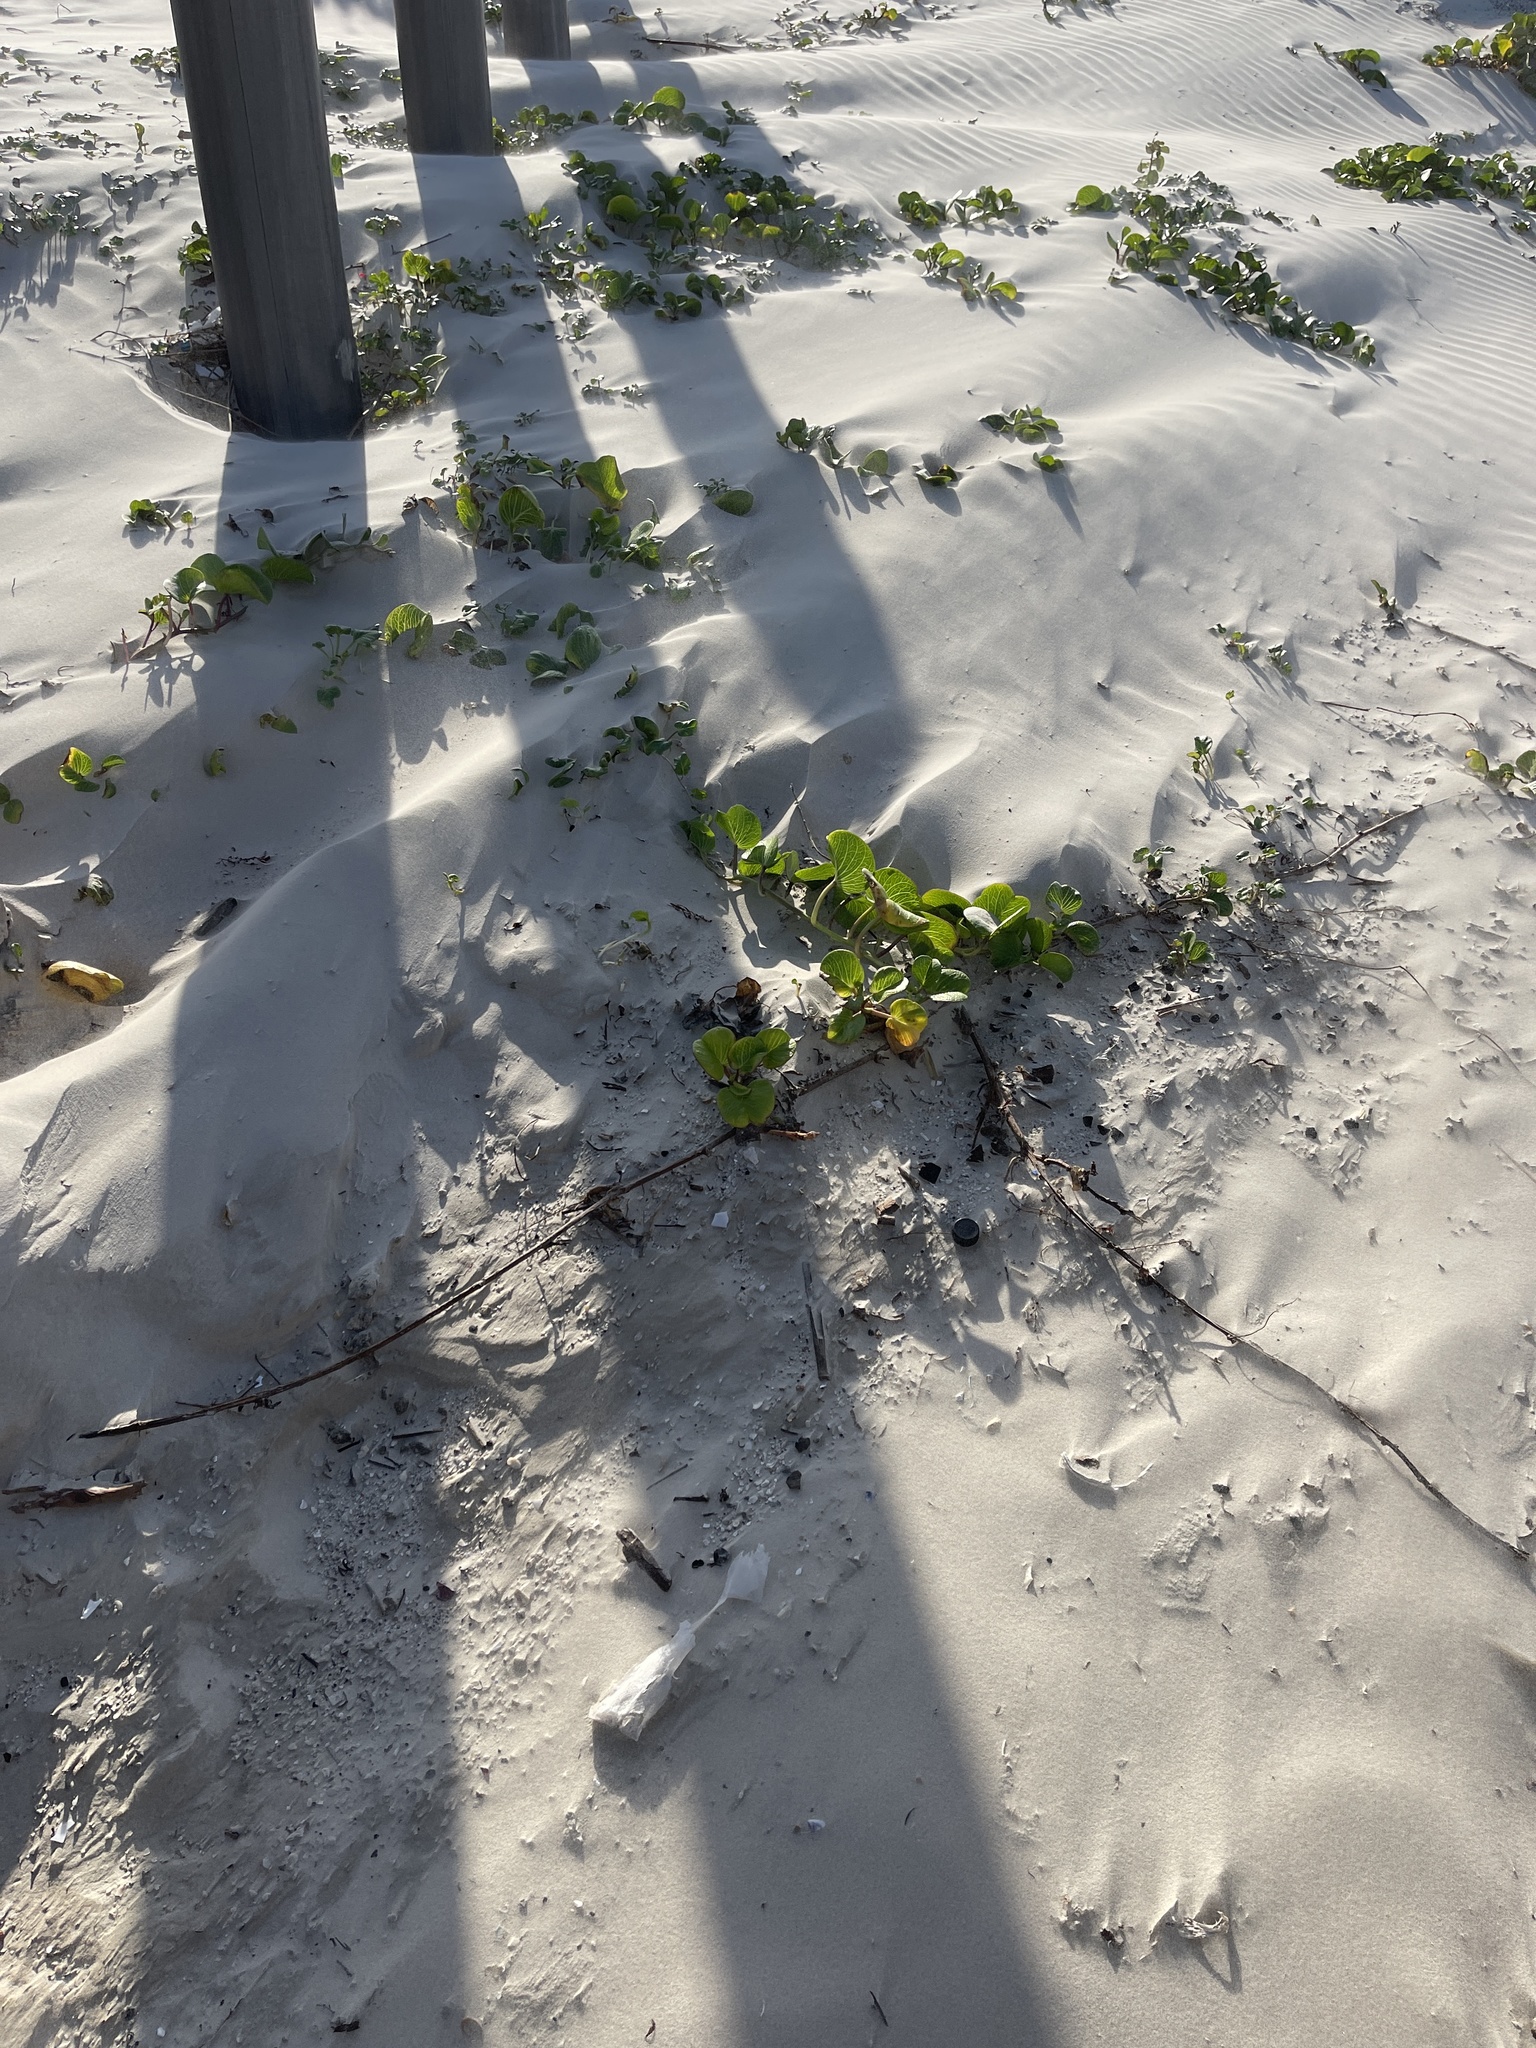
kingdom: Plantae
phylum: Tracheophyta
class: Magnoliopsida
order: Solanales
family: Convolvulaceae
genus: Ipomoea
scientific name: Ipomoea pes-caprae
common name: Beach morning glory
